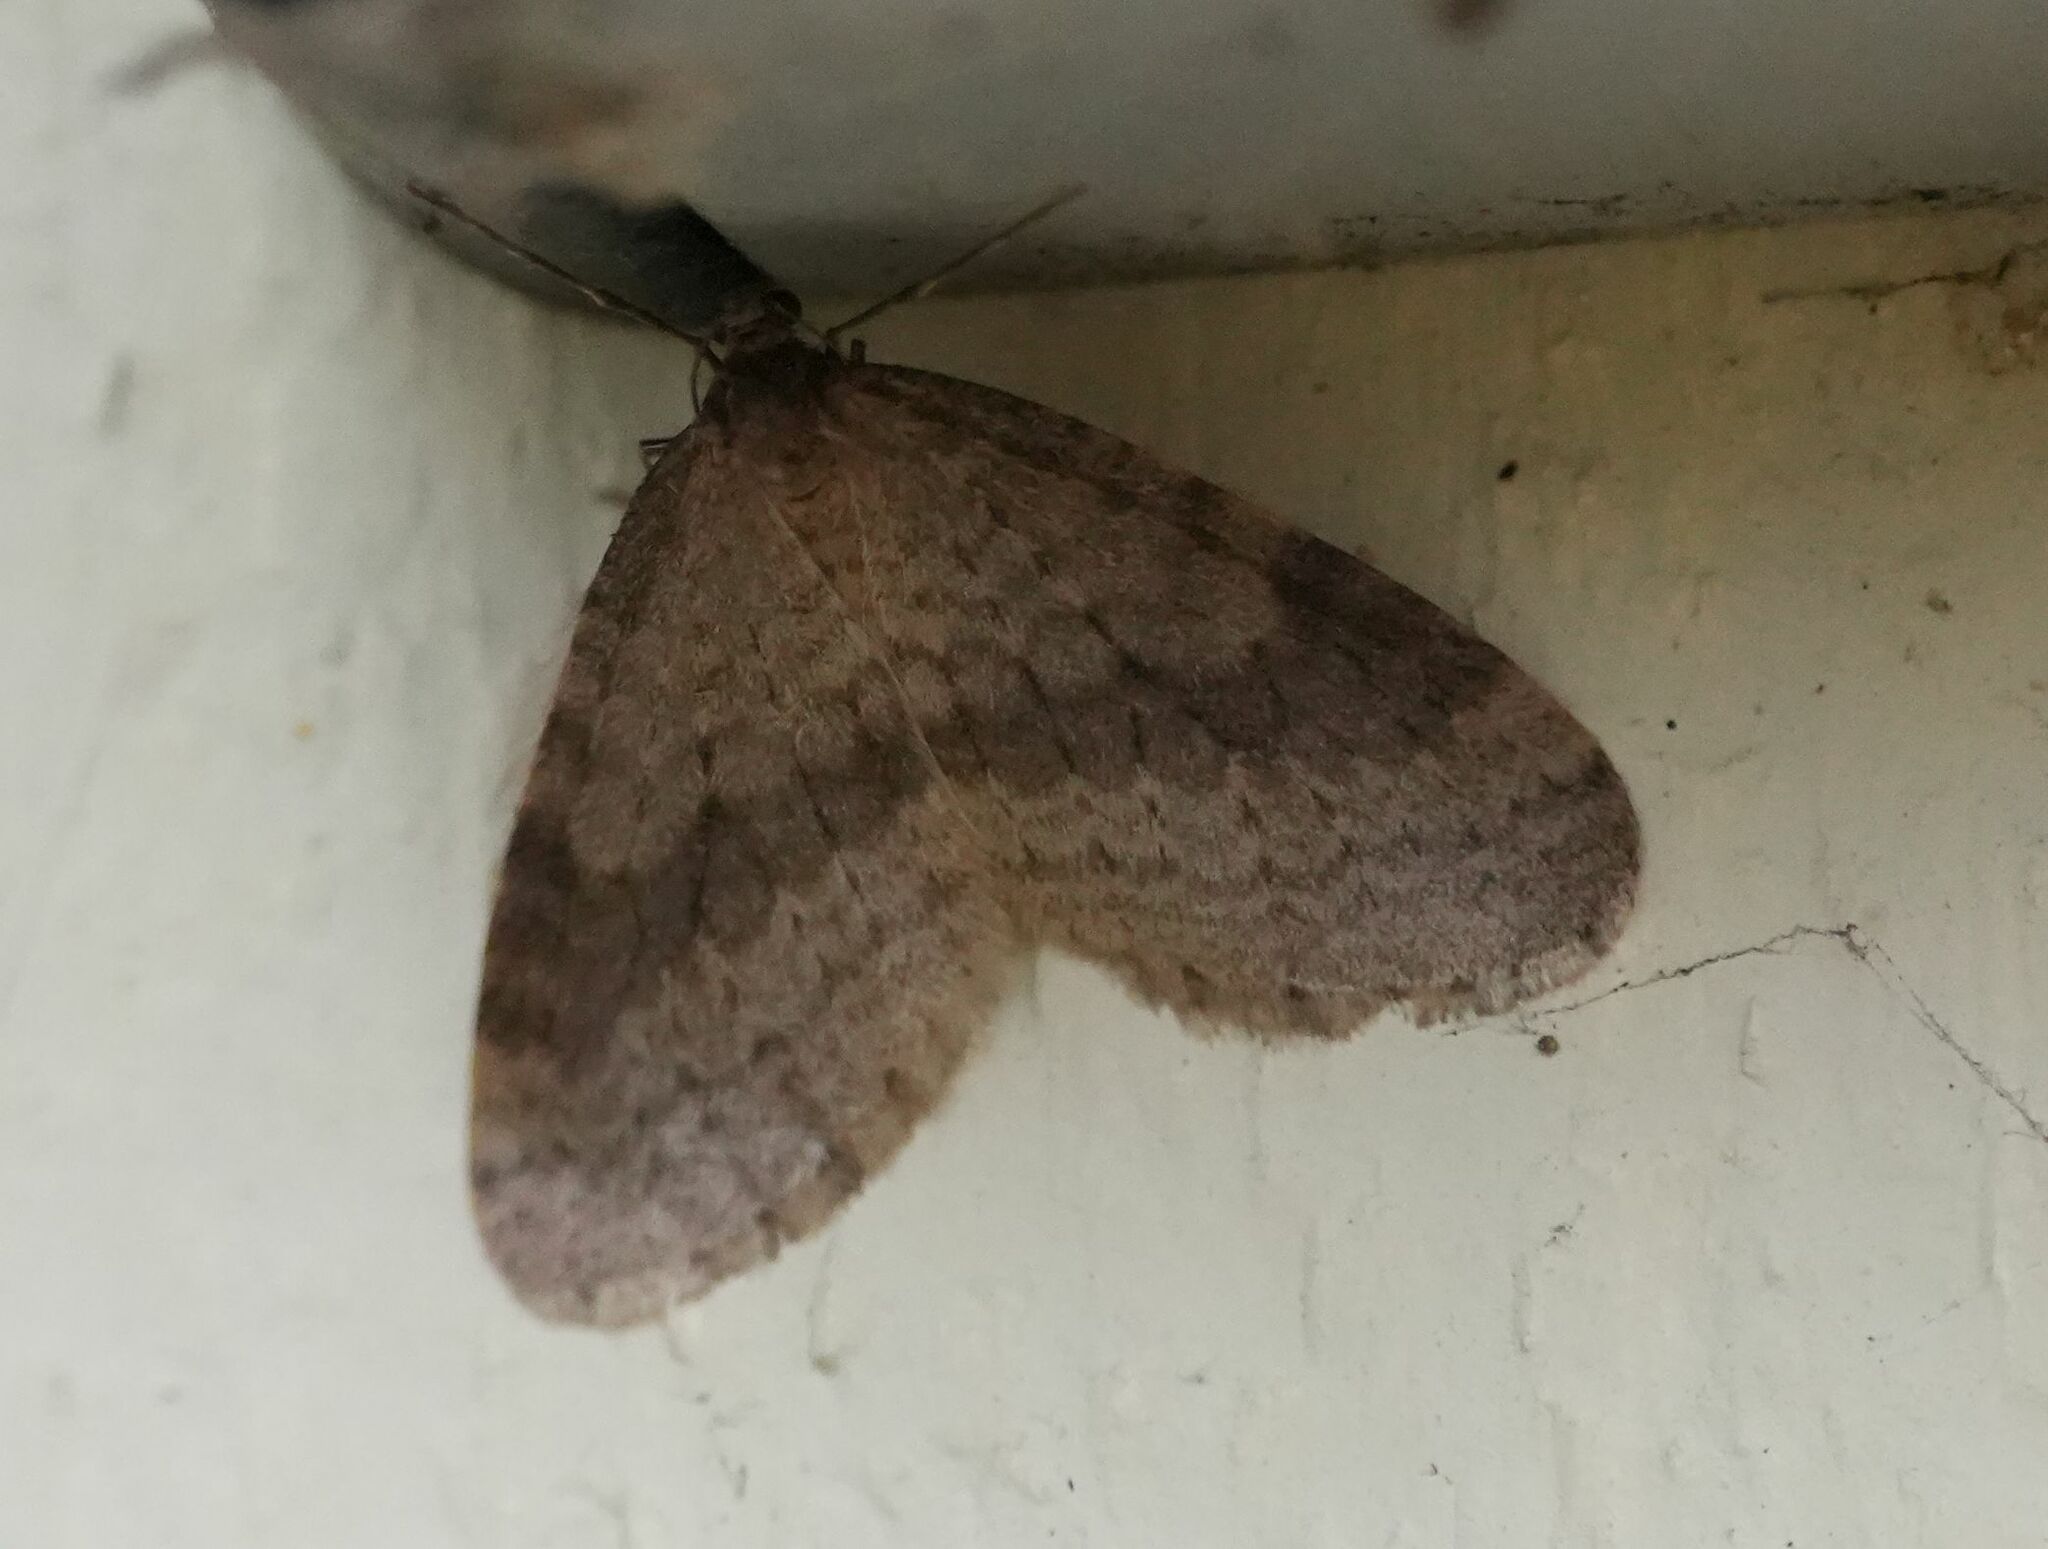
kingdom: Animalia
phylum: Arthropoda
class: Insecta
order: Lepidoptera
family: Geometridae
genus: Operophtera
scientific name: Operophtera bruceata
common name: Bruce spanworm
